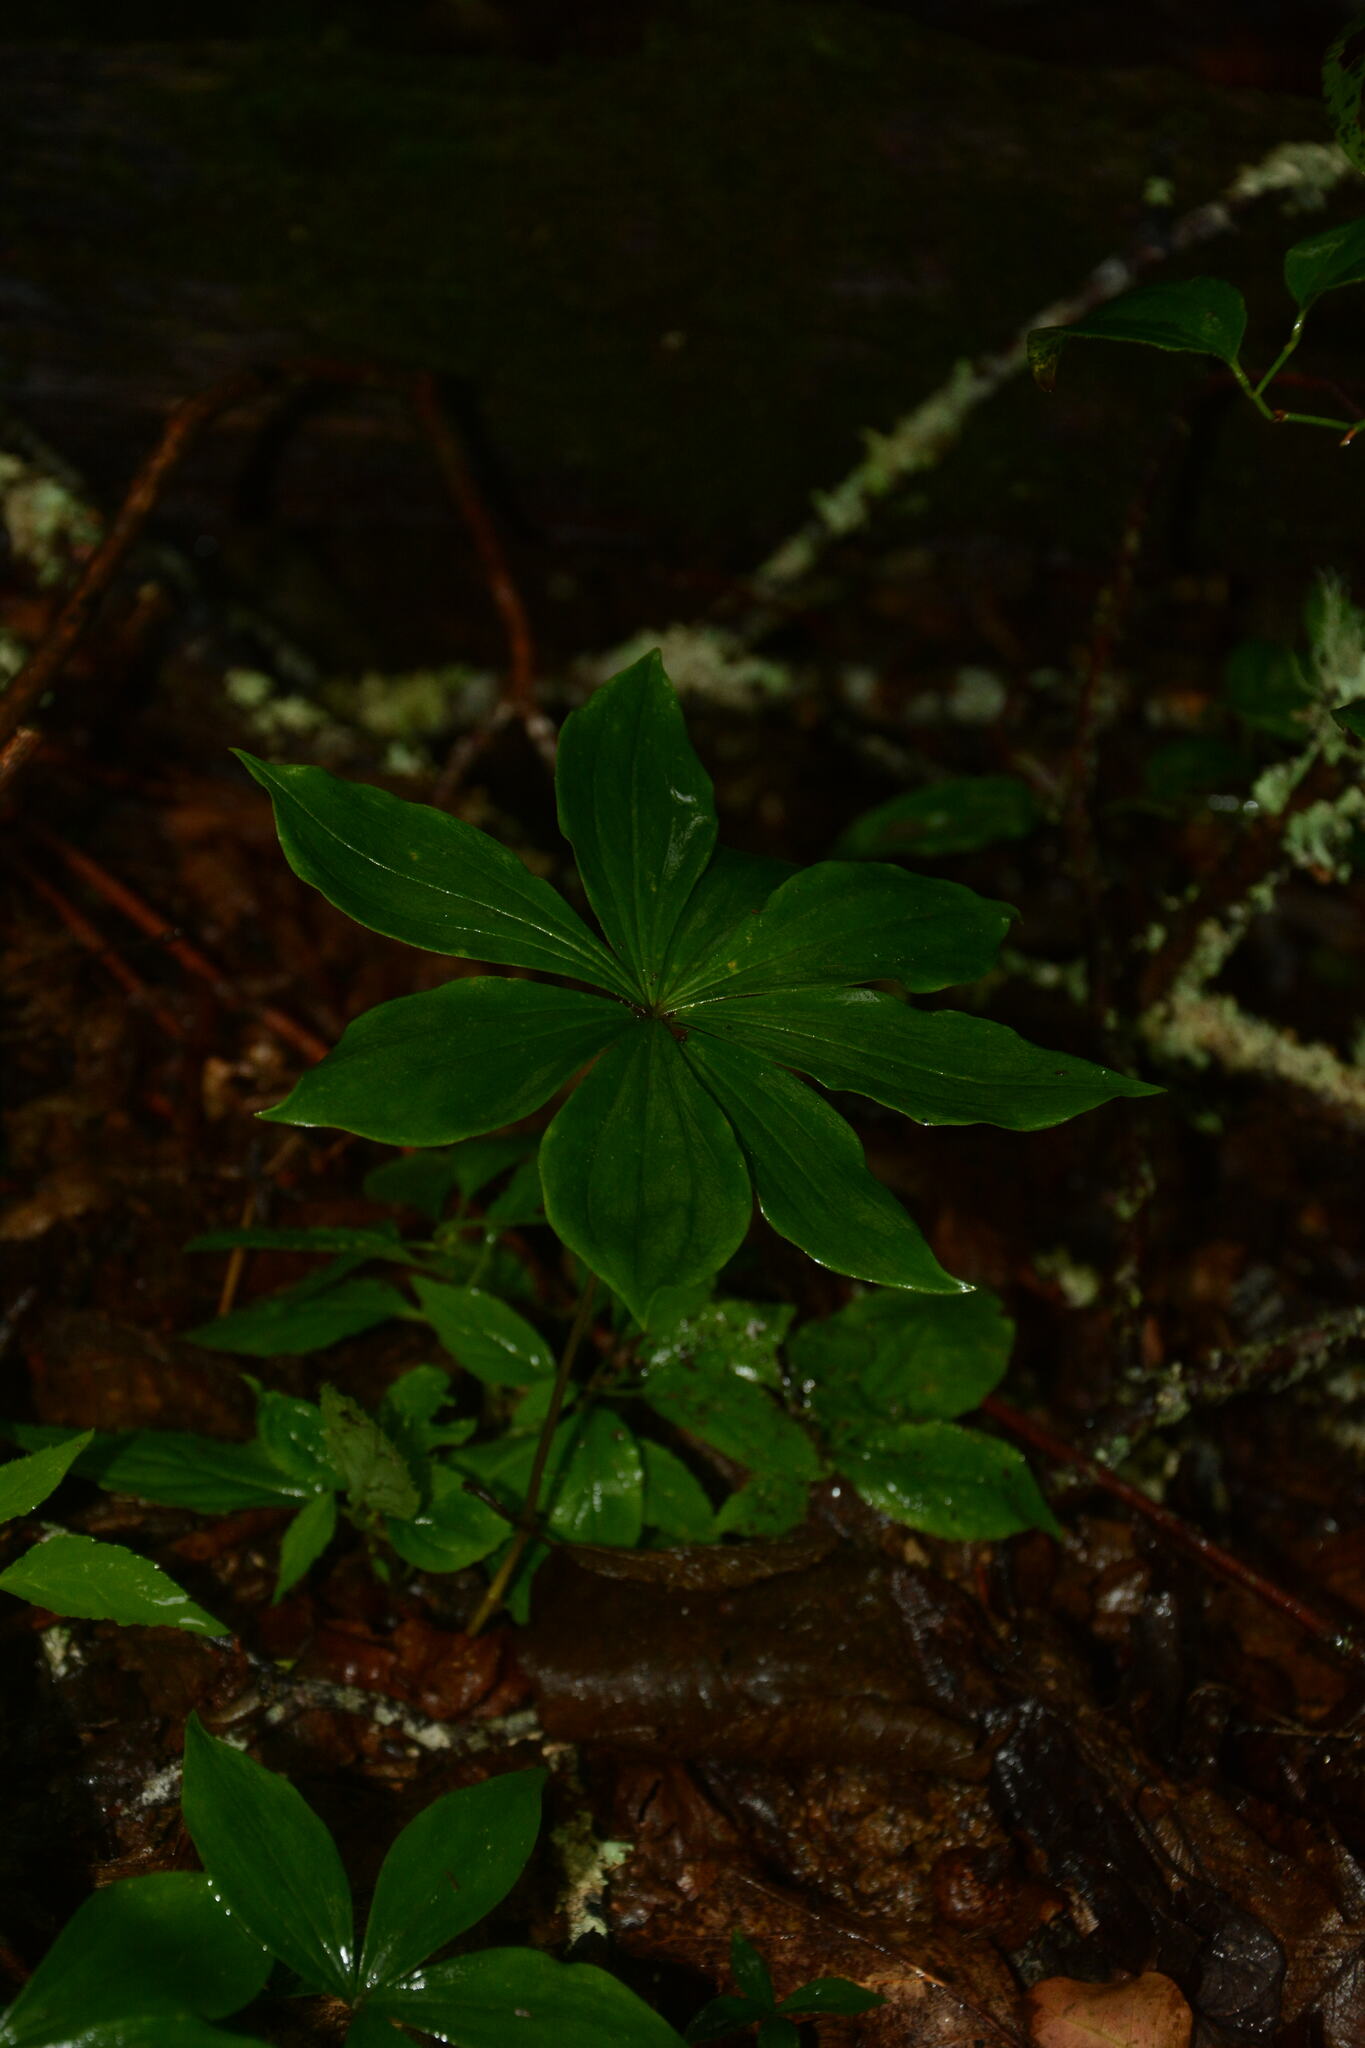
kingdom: Plantae
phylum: Tracheophyta
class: Liliopsida
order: Liliales
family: Liliaceae
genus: Medeola
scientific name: Medeola virginiana
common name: Indian cucumber-root
